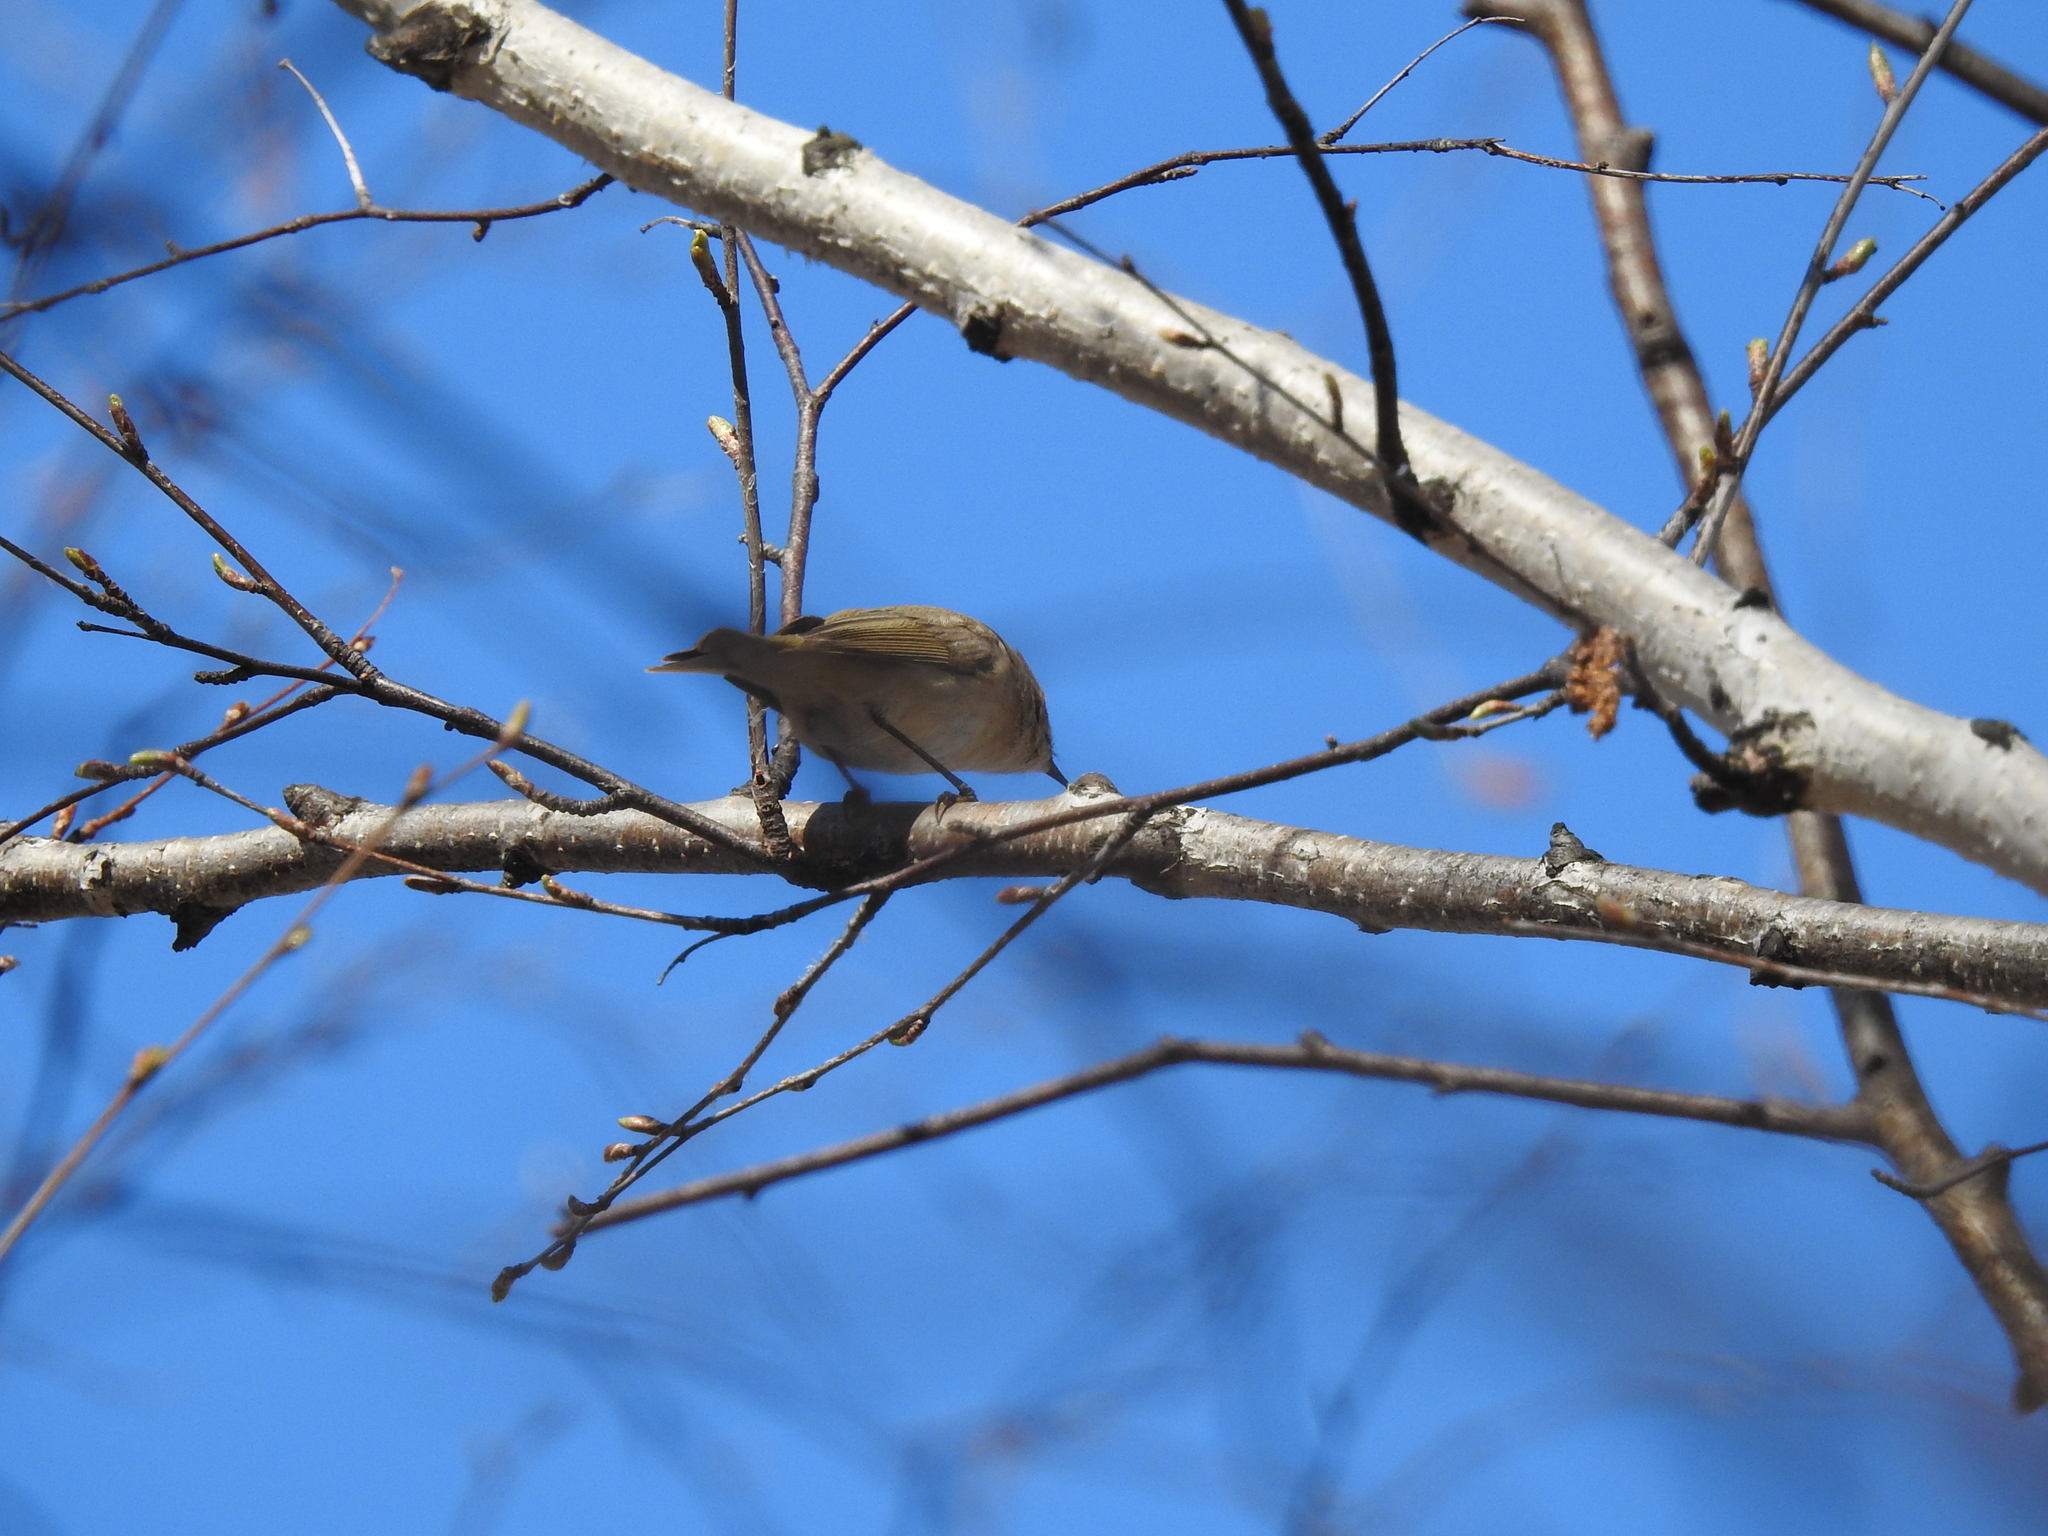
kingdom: Animalia
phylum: Chordata
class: Aves
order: Passeriformes
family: Phylloscopidae
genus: Phylloscopus
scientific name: Phylloscopus collybita
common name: Common chiffchaff
